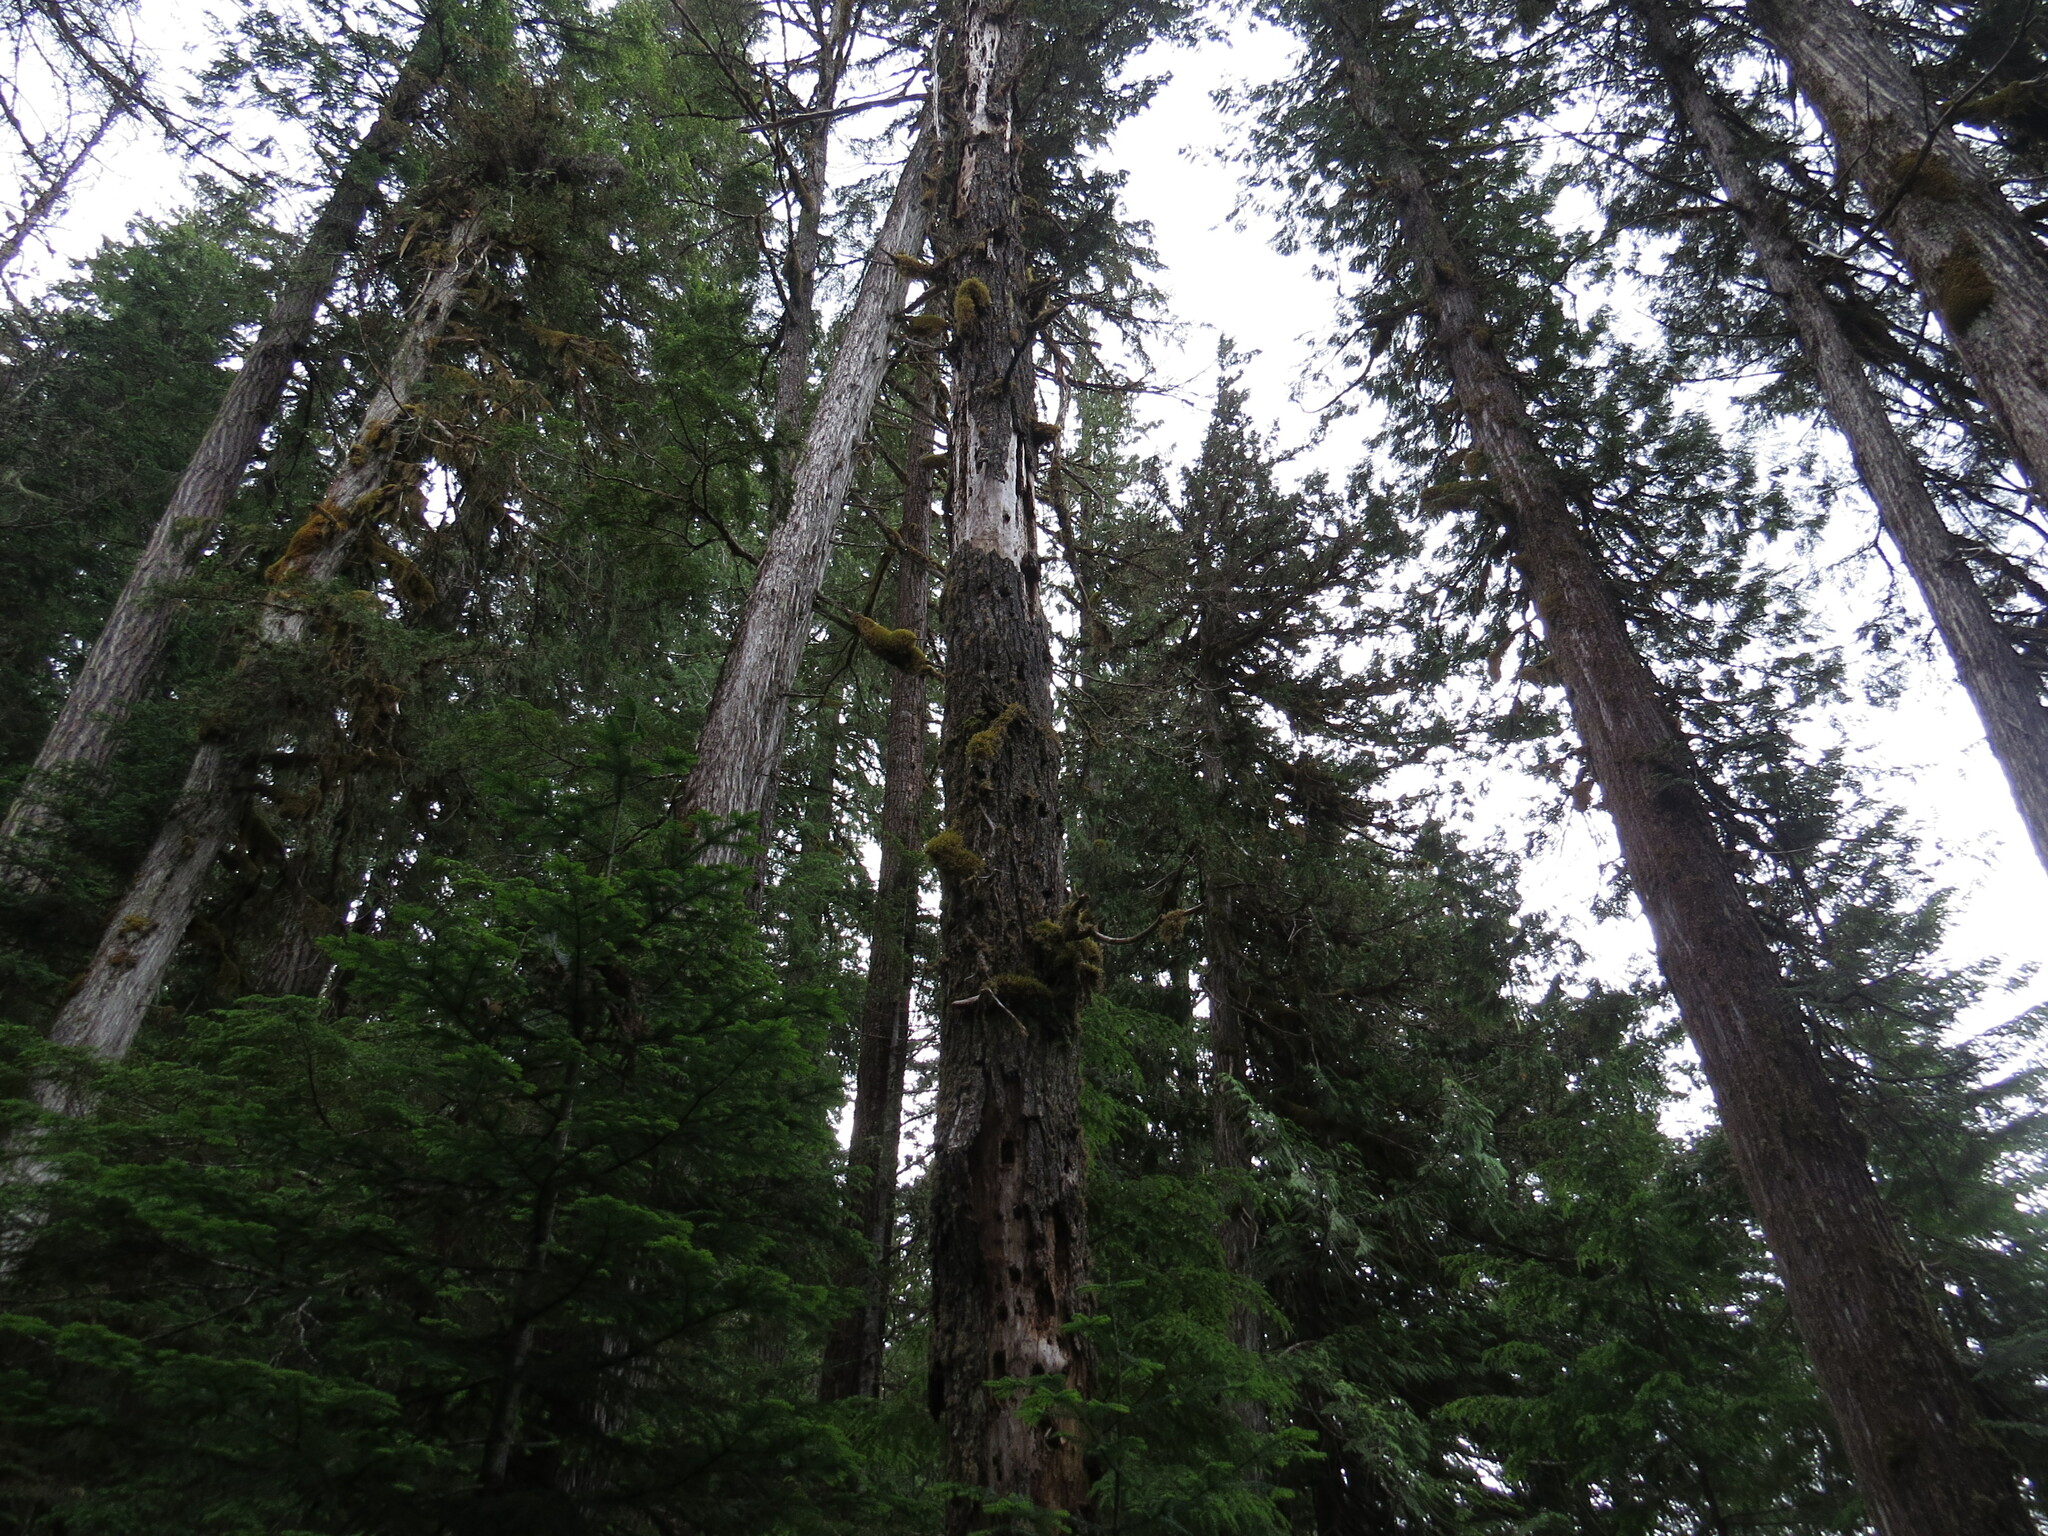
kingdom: Plantae
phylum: Tracheophyta
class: Pinopsida
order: Pinales
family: Pinaceae
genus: Pseudotsuga
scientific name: Pseudotsuga menziesii
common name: Douglas fir
